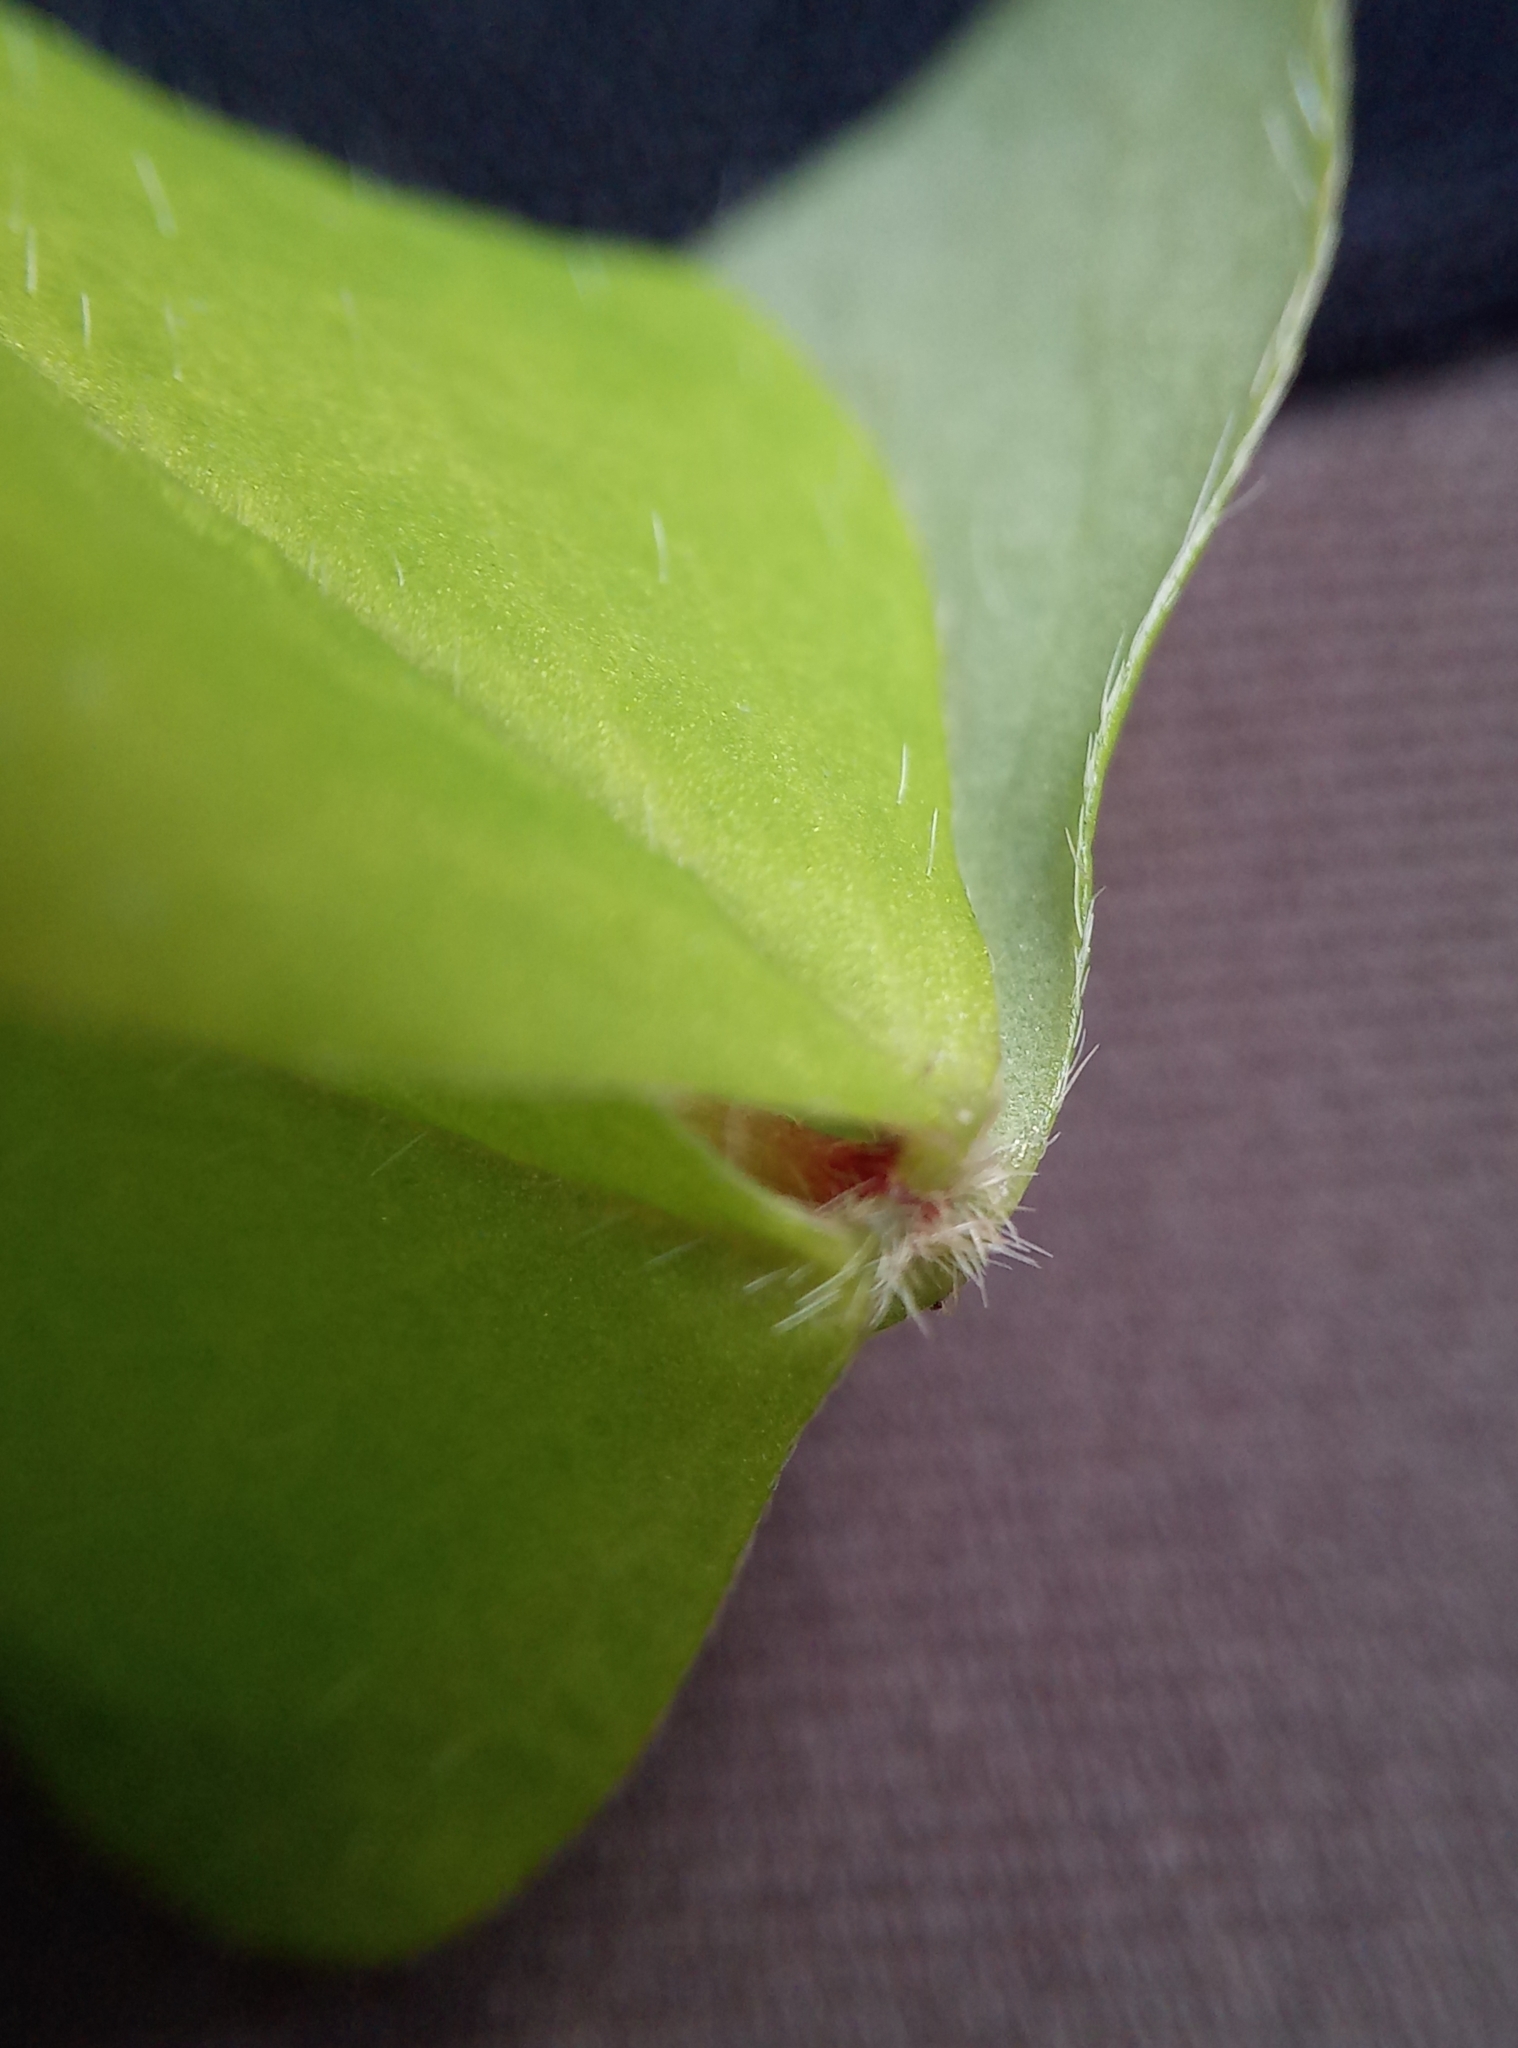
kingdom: Plantae
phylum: Tracheophyta
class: Magnoliopsida
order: Oxalidales
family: Oxalidaceae
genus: Oxalis
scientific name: Oxalis acetosella
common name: Wood-sorrel
